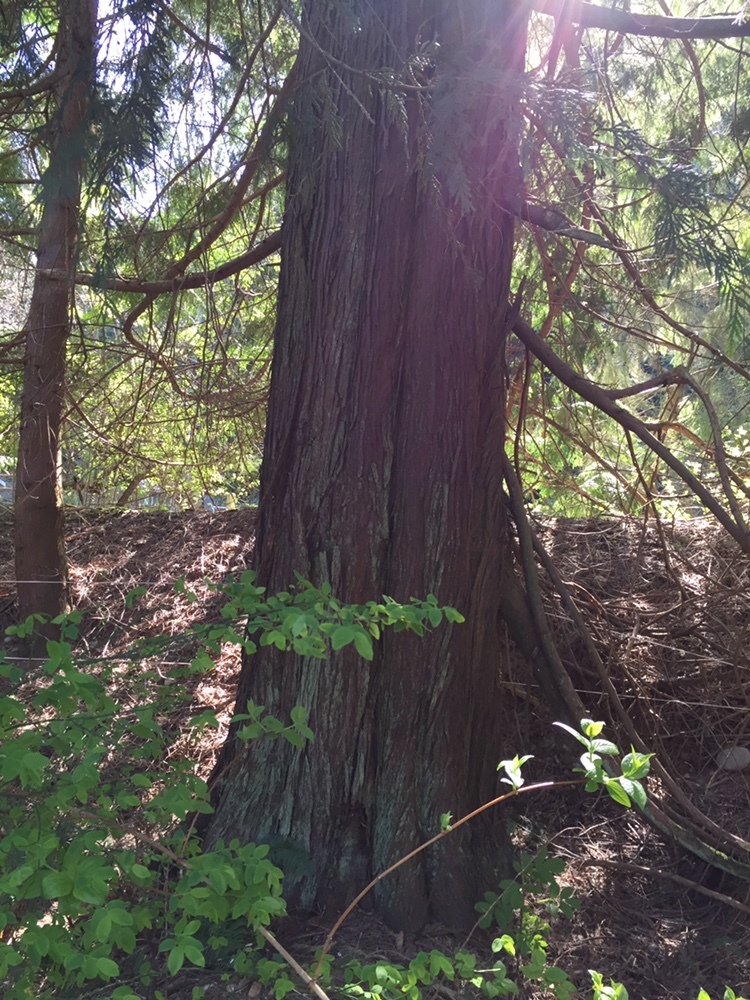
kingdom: Plantae
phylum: Tracheophyta
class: Pinopsida
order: Pinales
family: Cupressaceae
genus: Thuja
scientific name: Thuja plicata
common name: Western red-cedar
